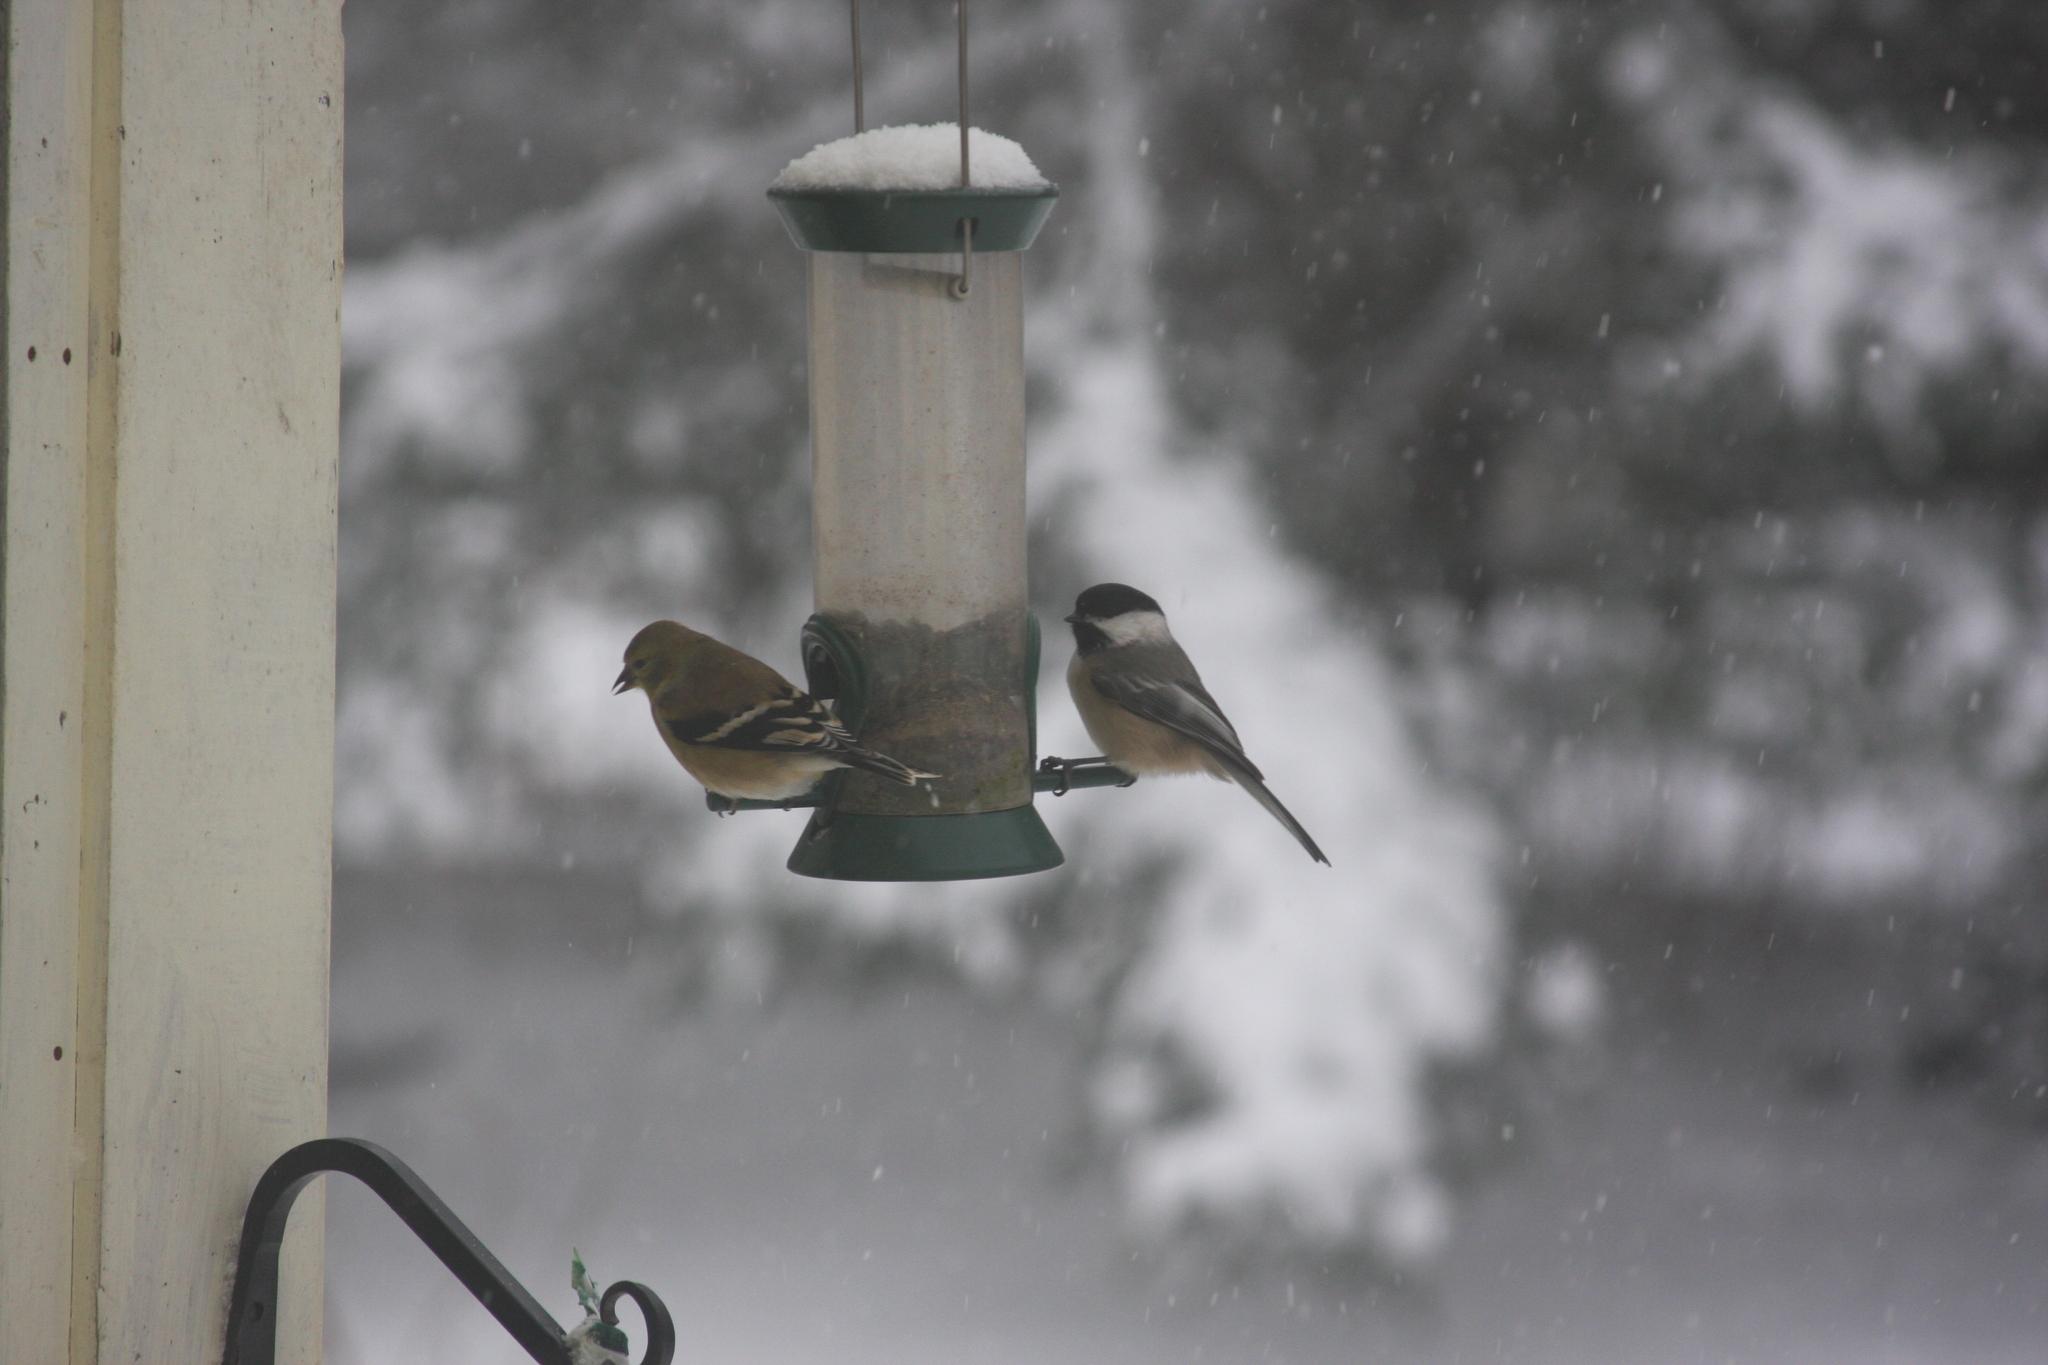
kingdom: Animalia
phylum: Chordata
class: Aves
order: Passeriformes
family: Paridae
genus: Poecile
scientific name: Poecile atricapillus
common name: Black-capped chickadee
